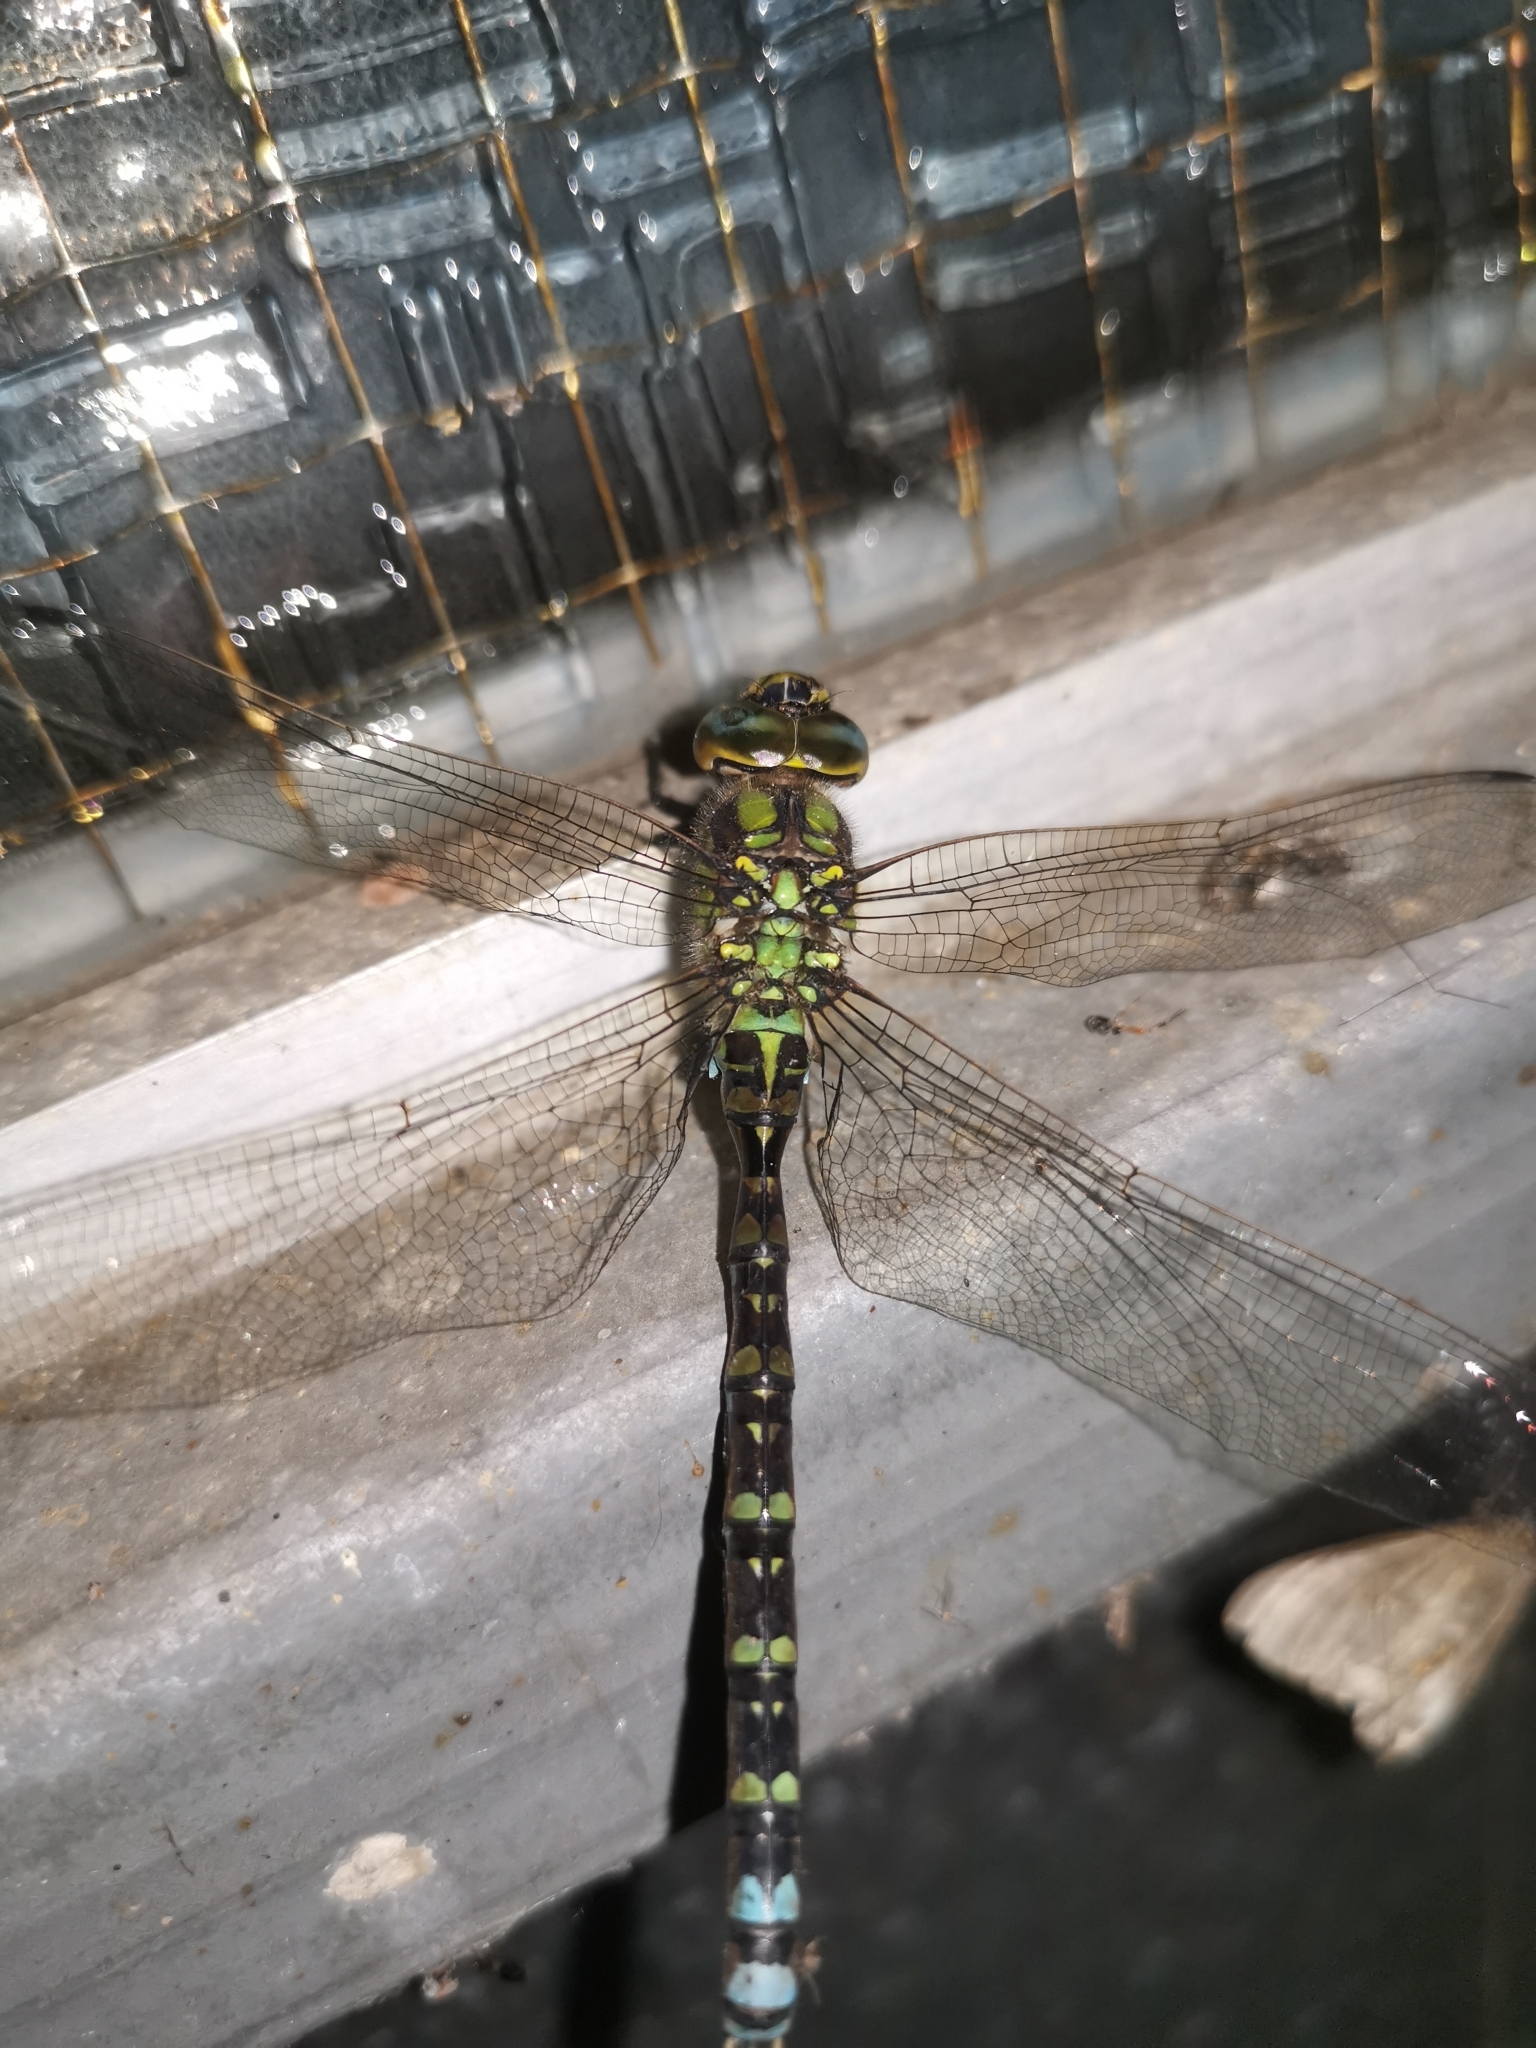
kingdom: Animalia
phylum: Arthropoda
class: Insecta
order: Odonata
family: Aeshnidae
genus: Aeshna
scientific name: Aeshna cyanea
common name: Southern hawker
